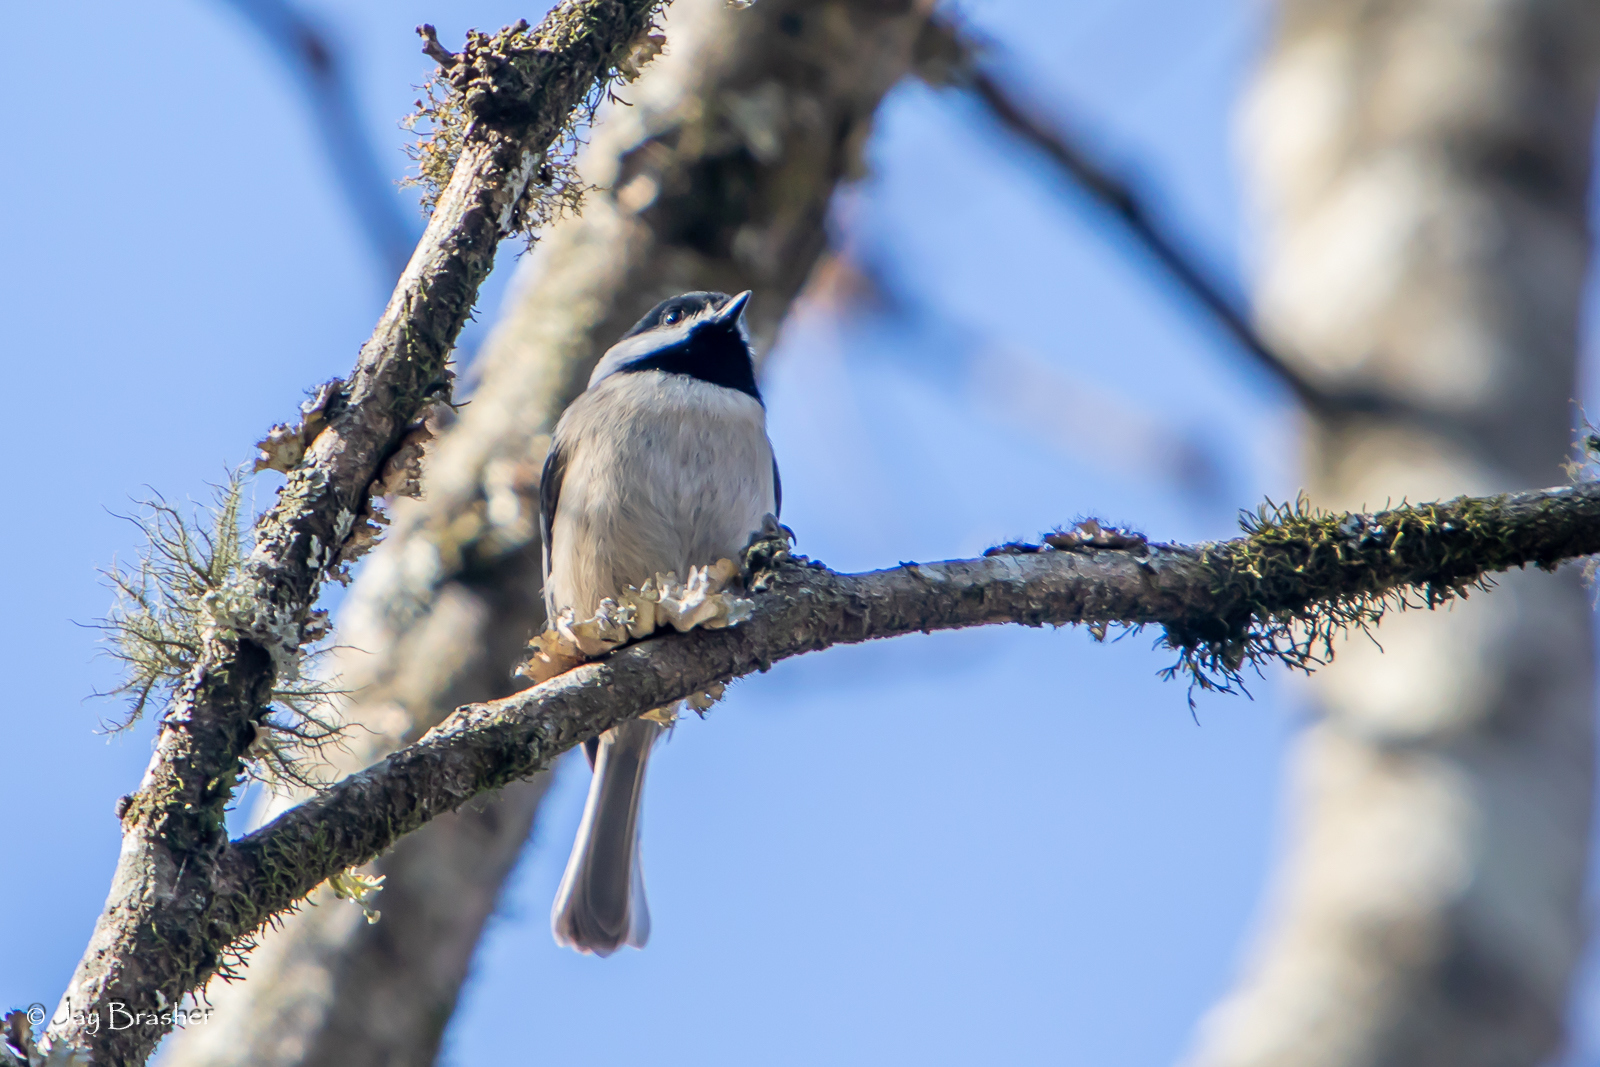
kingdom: Animalia
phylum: Chordata
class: Aves
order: Passeriformes
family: Paridae
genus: Poecile
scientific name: Poecile carolinensis
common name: Carolina chickadee
